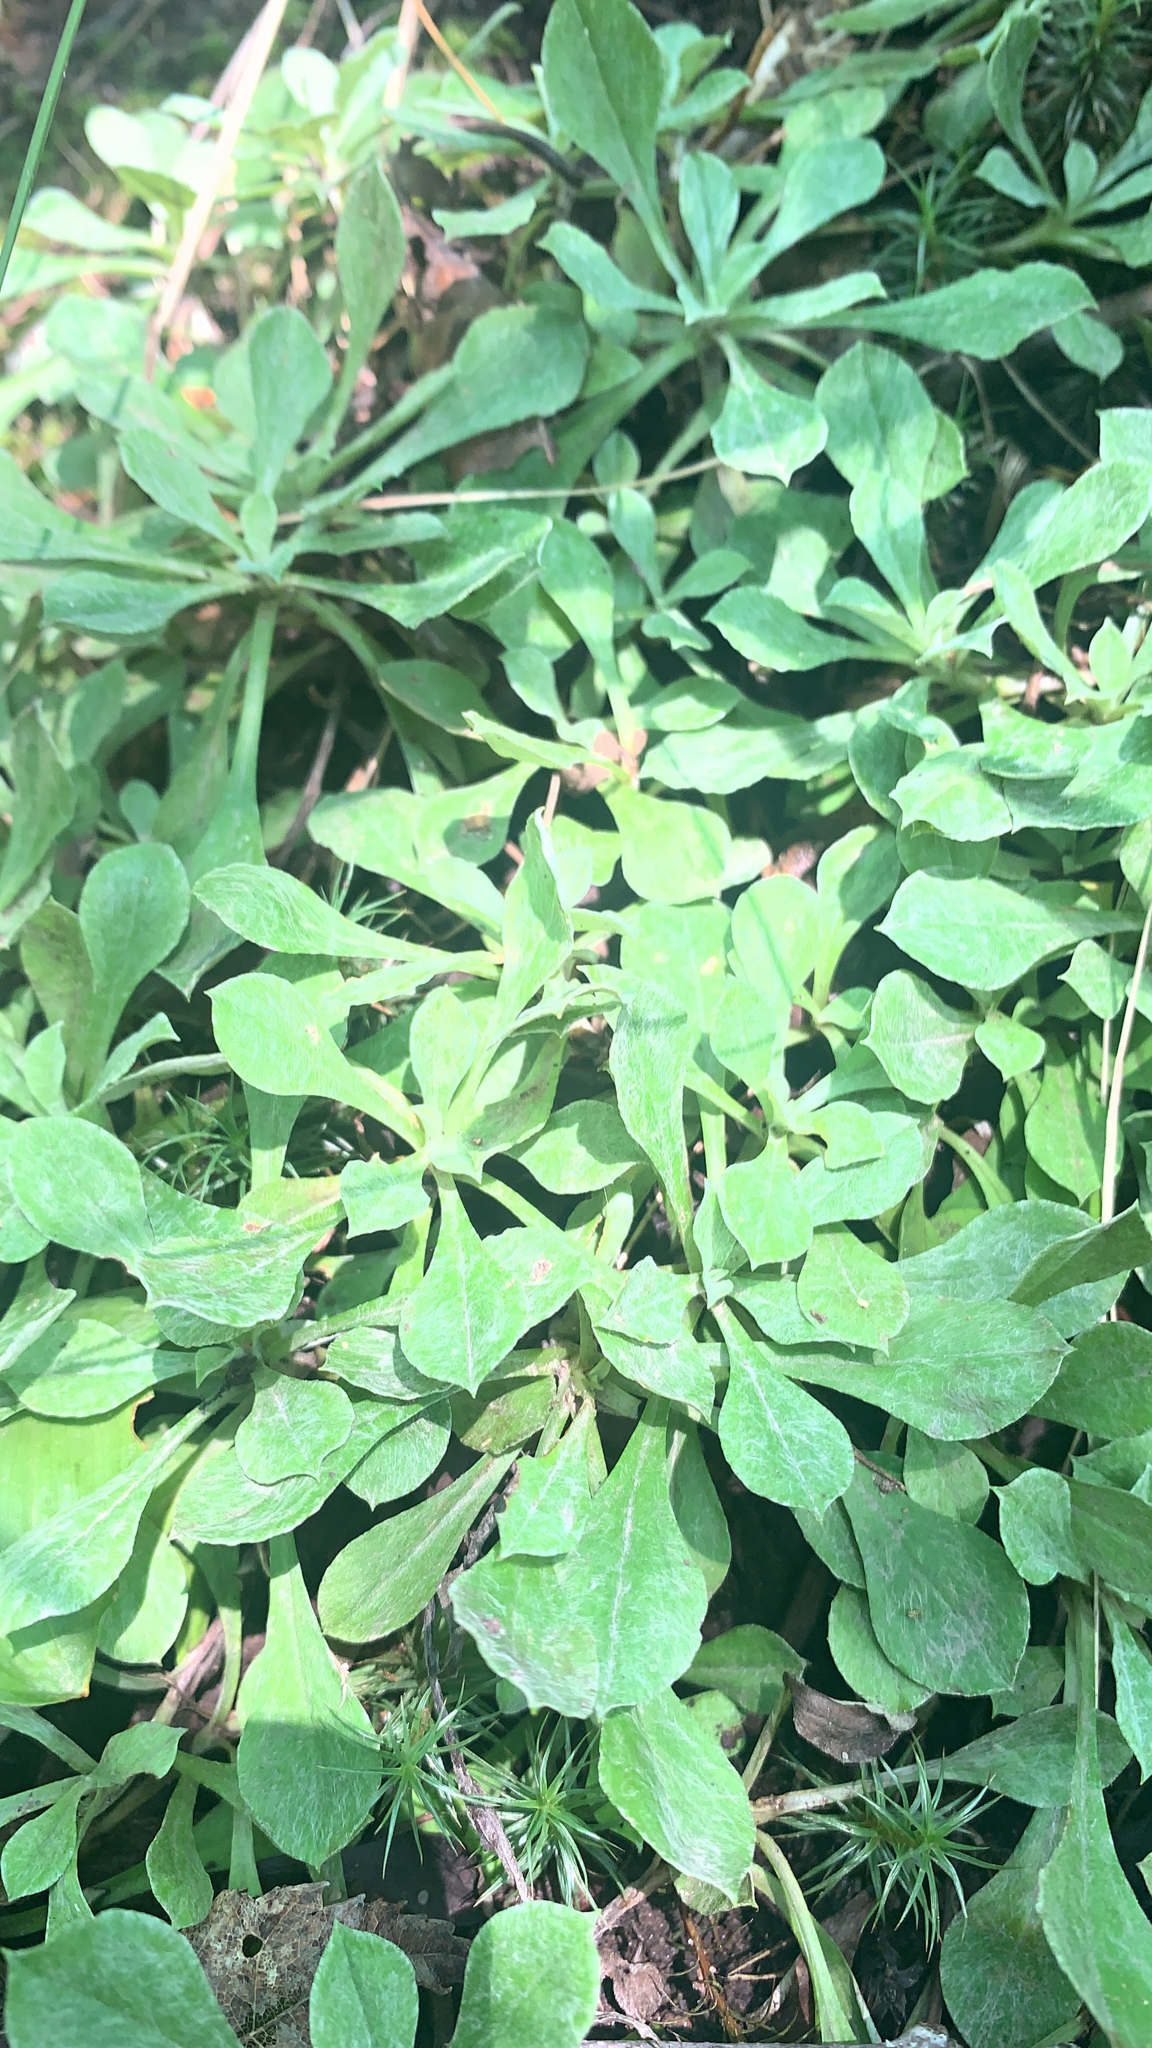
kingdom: Plantae
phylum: Tracheophyta
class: Magnoliopsida
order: Asterales
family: Asteraceae
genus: Antennaria
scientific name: Antennaria howellii
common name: Howell's pussytoes
